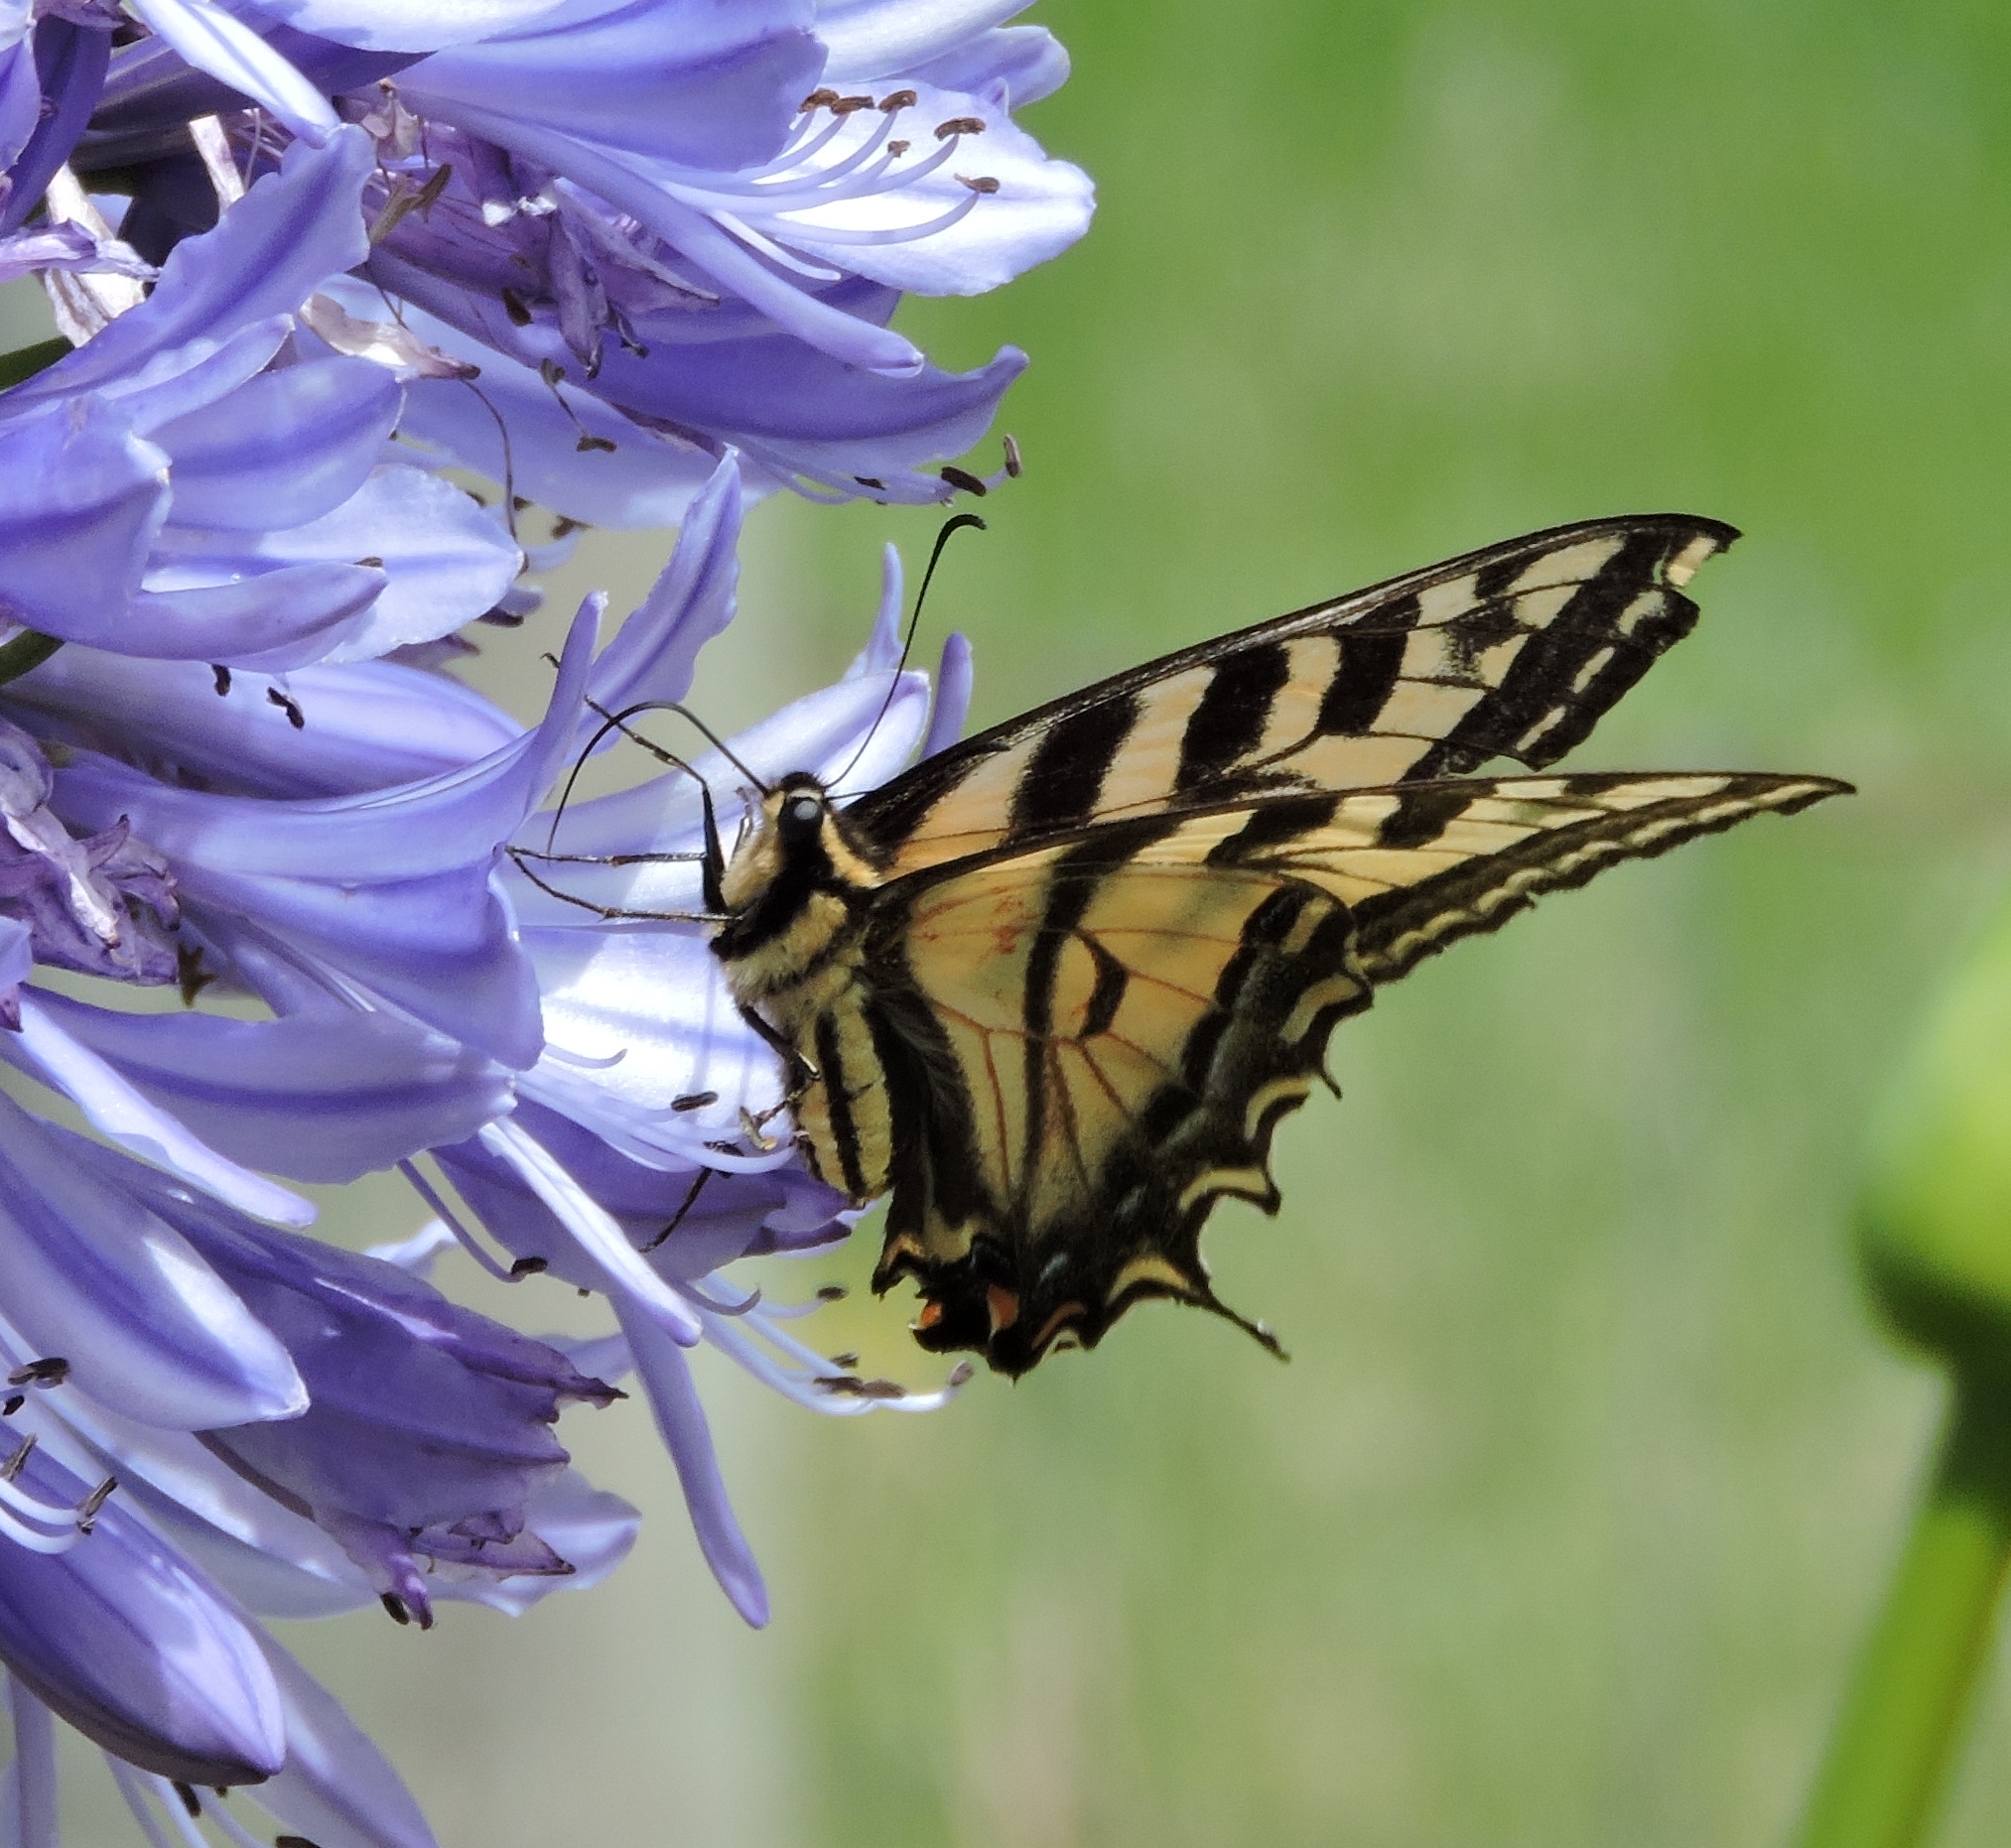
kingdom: Animalia
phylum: Arthropoda
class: Insecta
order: Lepidoptera
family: Papilionidae
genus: Papilio
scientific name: Papilio rutulus
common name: Western tiger swallowtail
